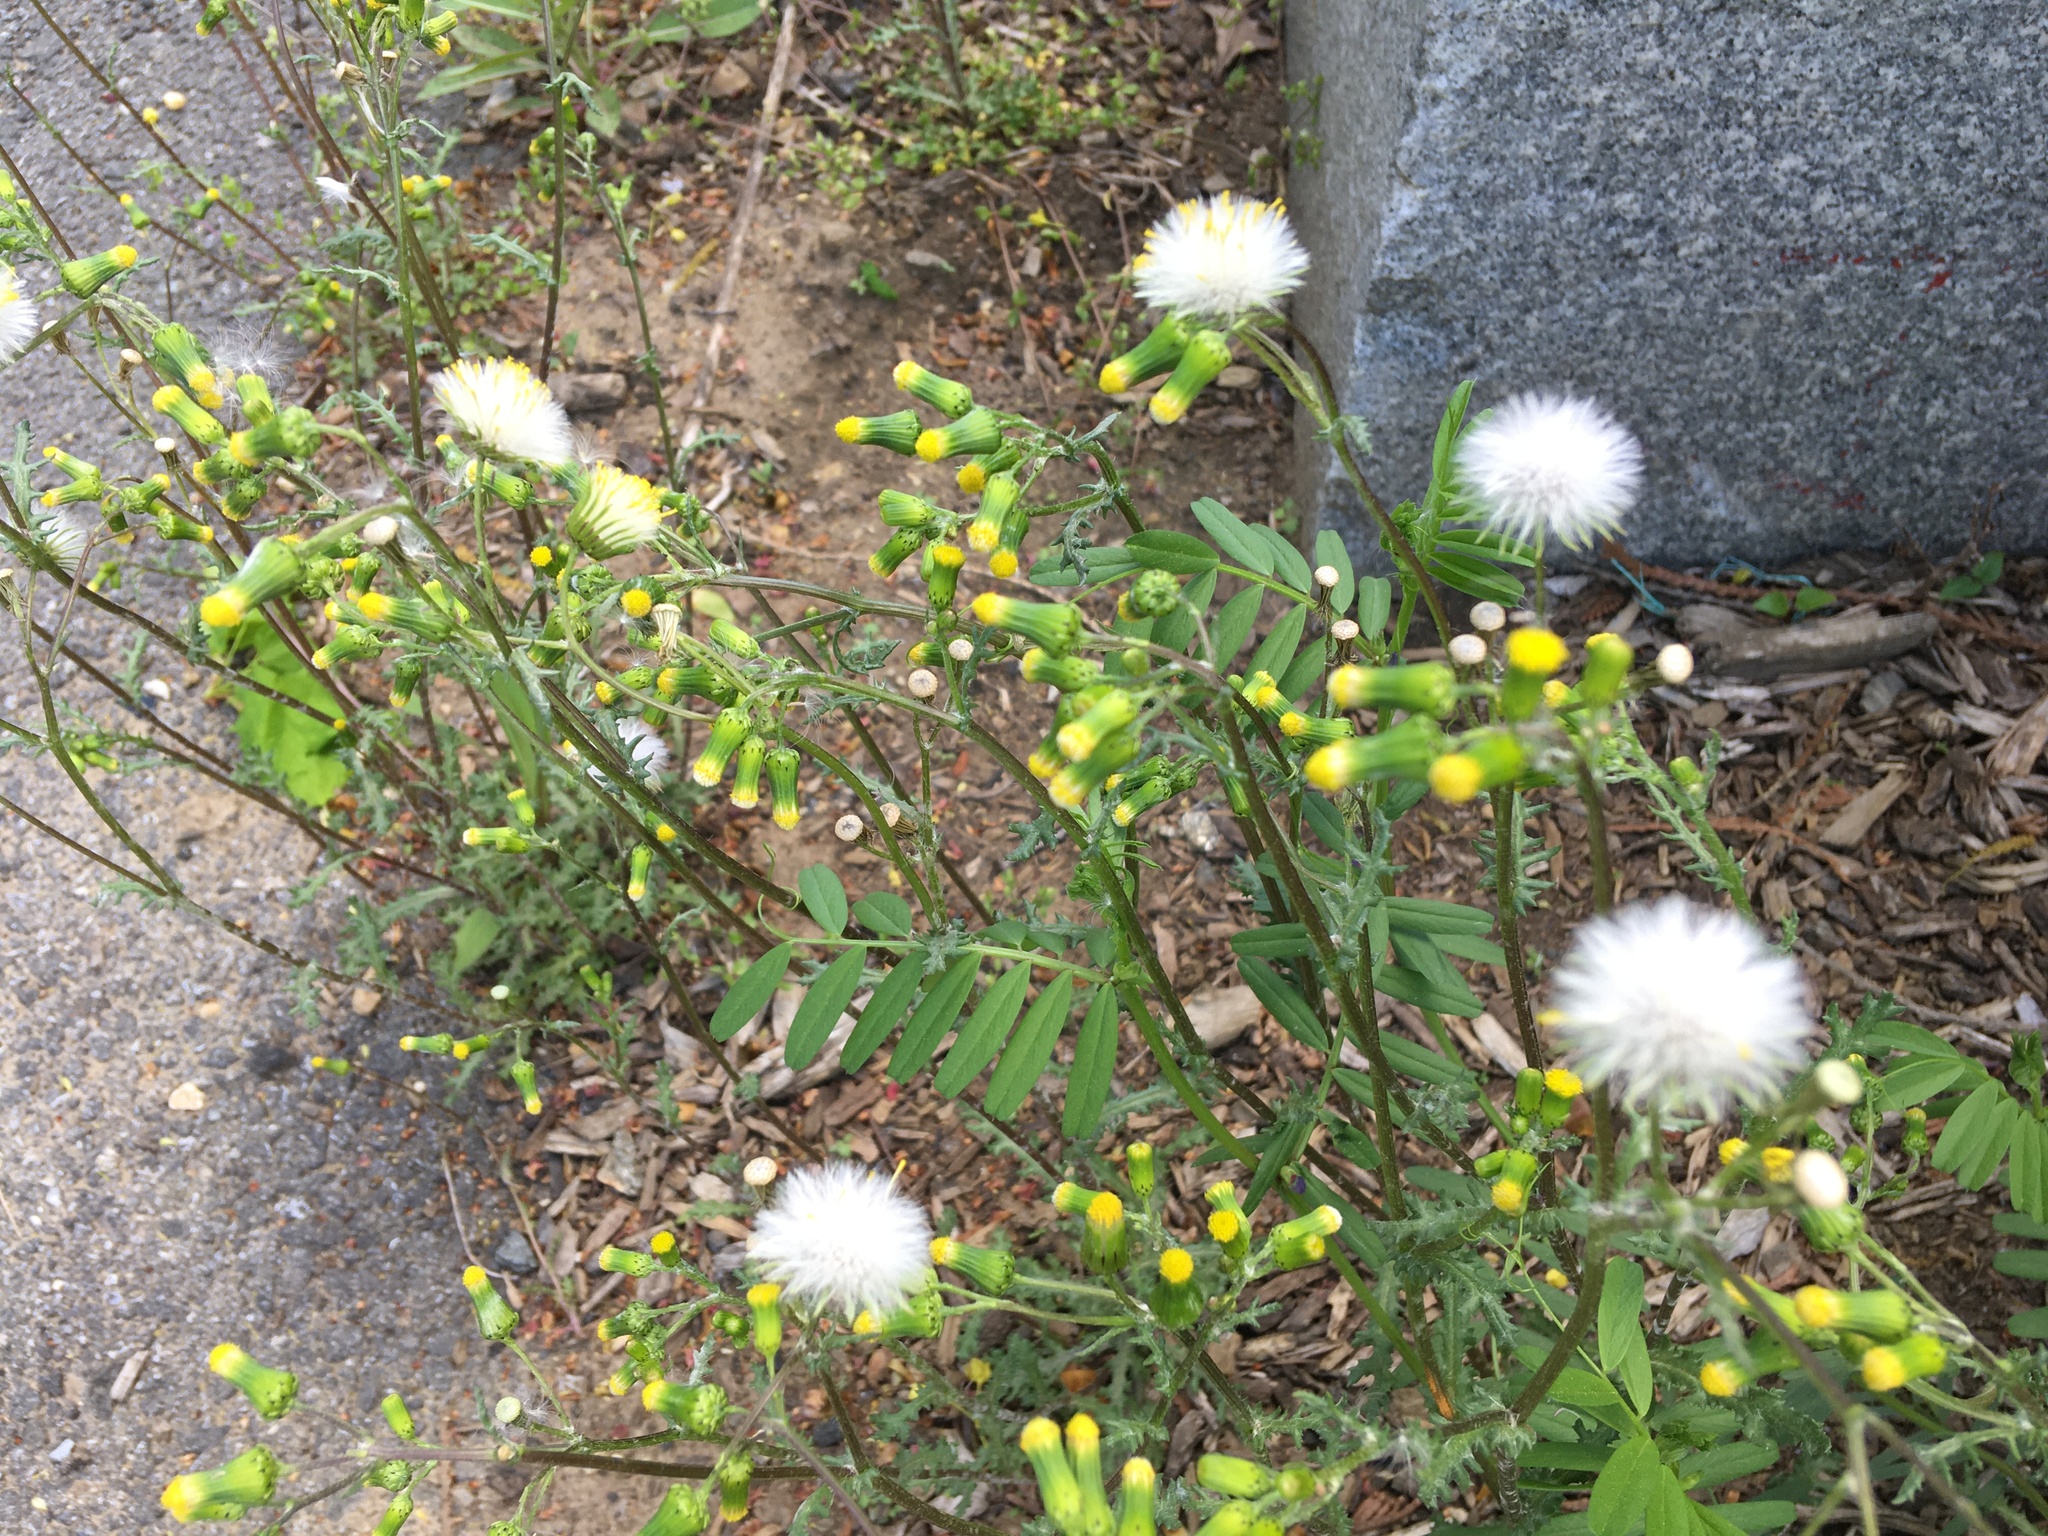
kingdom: Plantae
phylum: Tracheophyta
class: Magnoliopsida
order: Asterales
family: Asteraceae
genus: Senecio
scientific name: Senecio vulgaris
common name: Old-man-in-the-spring
